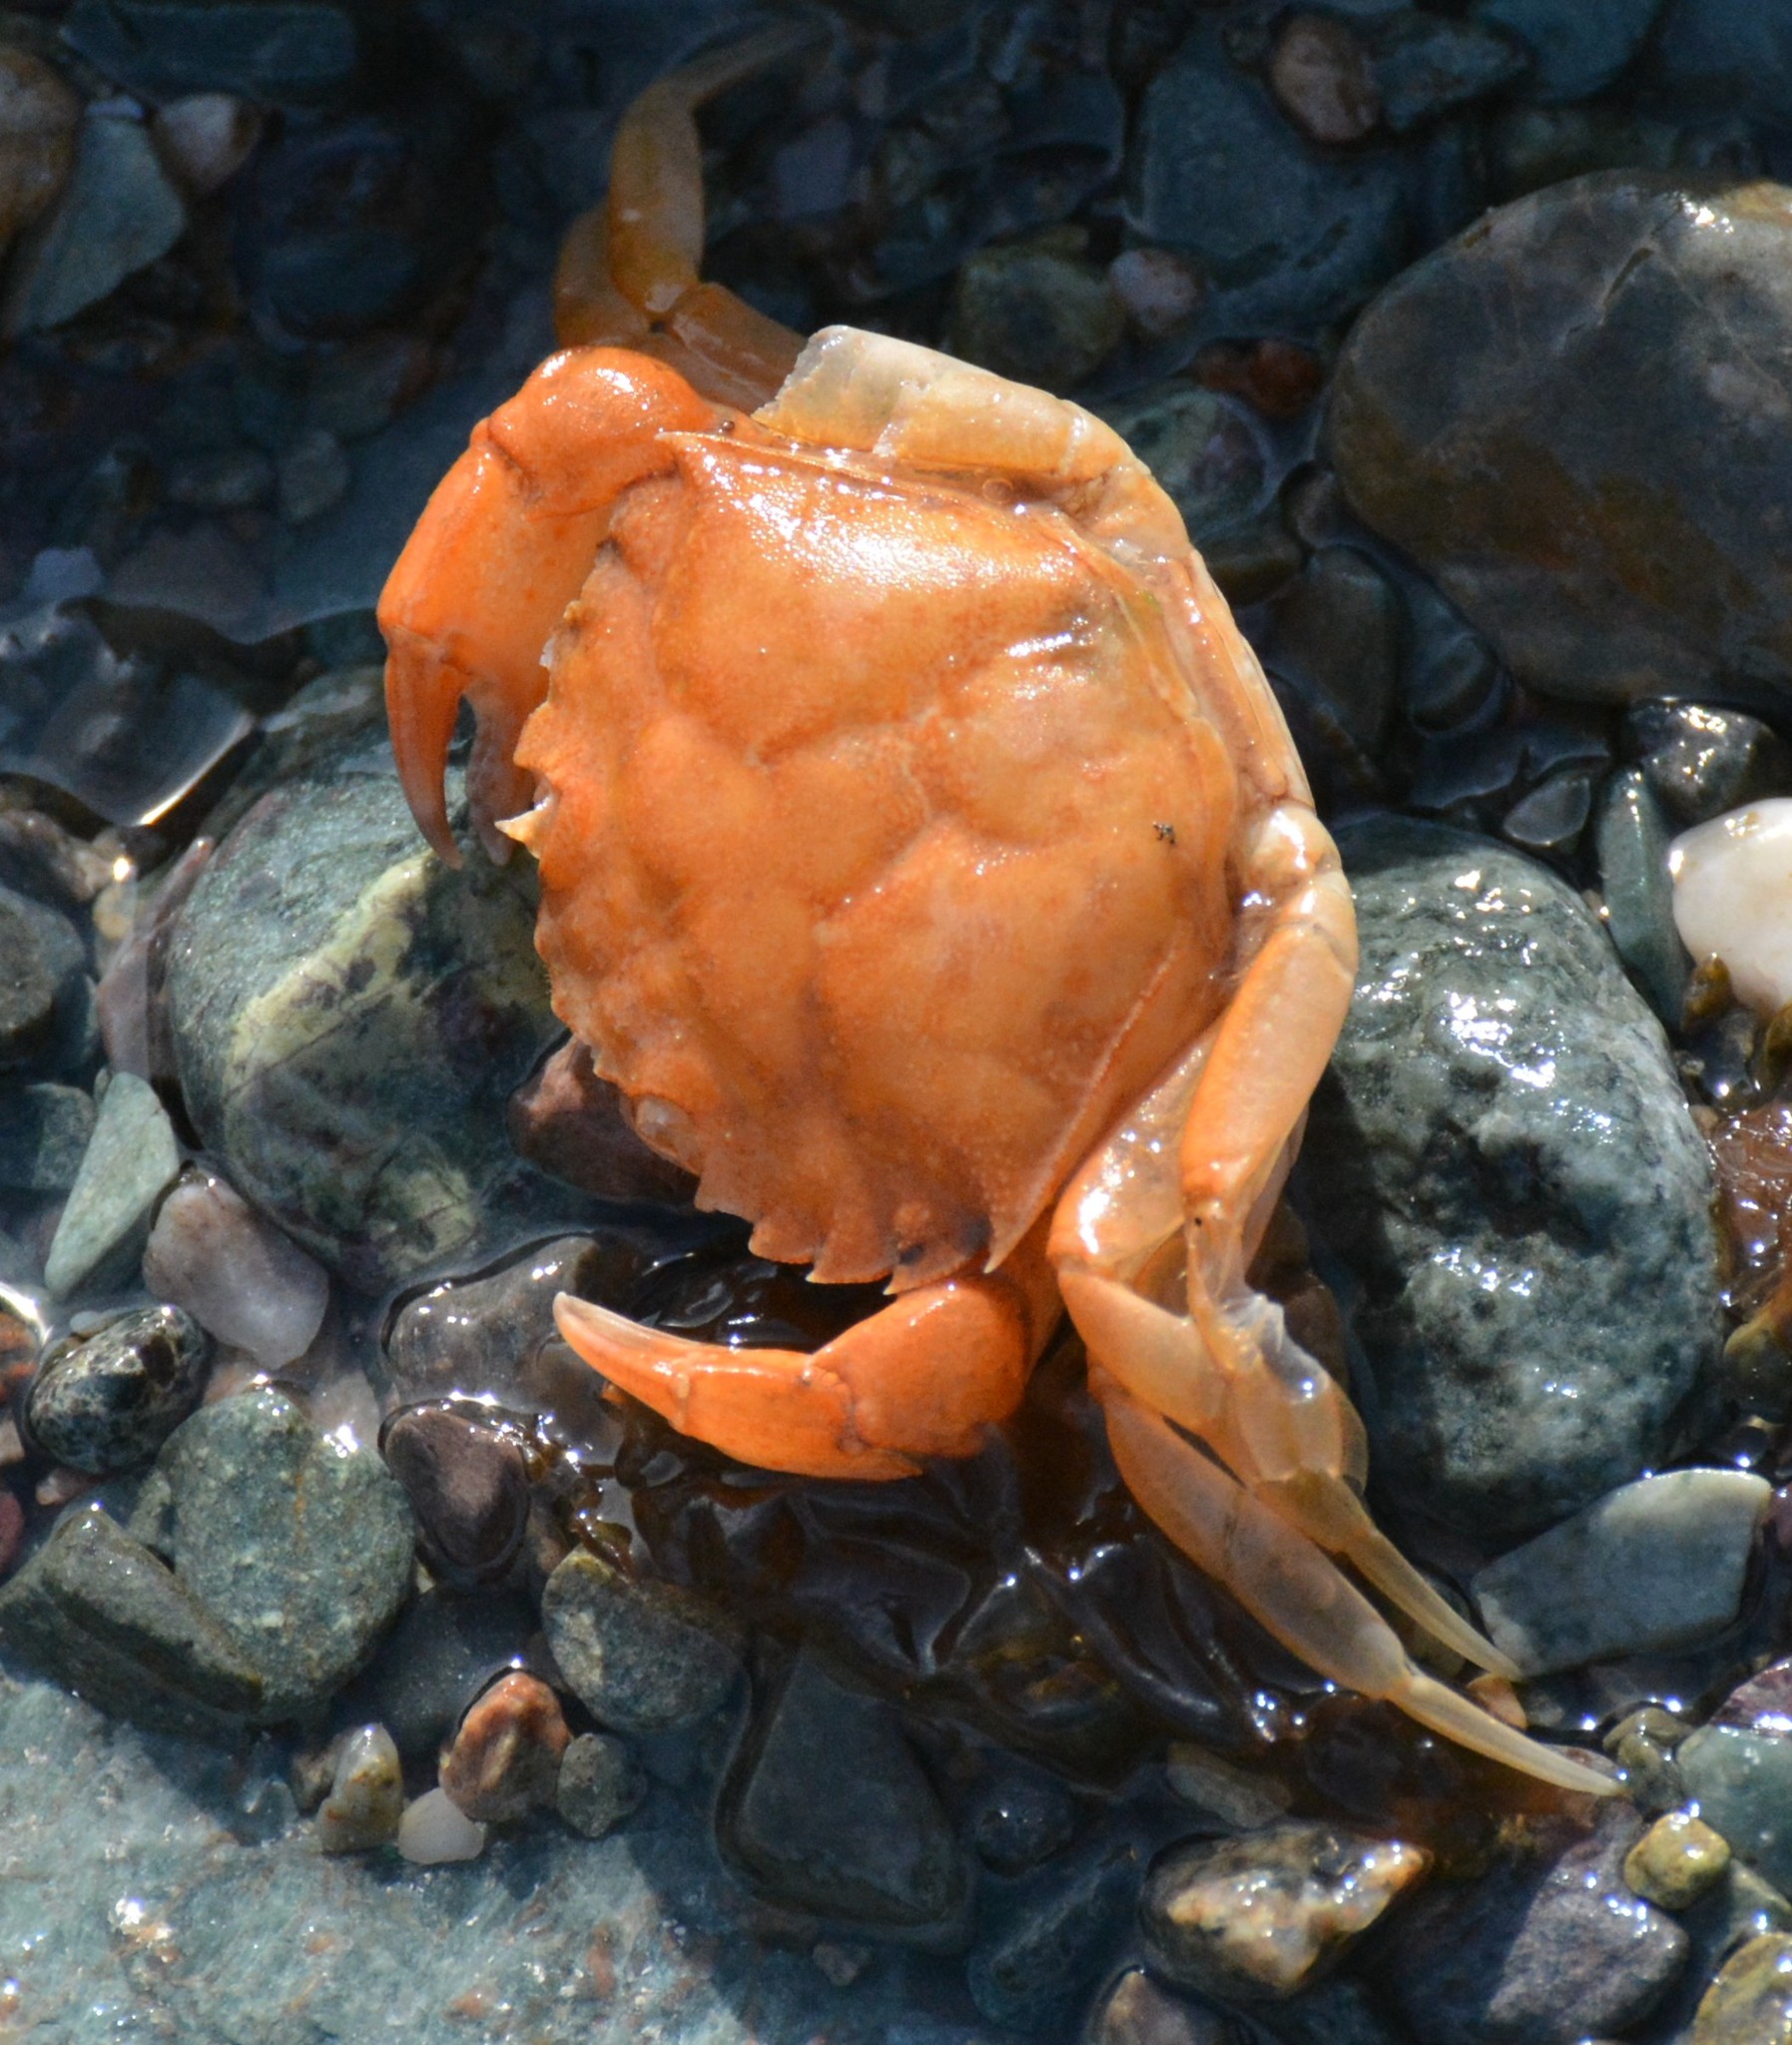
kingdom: Animalia
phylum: Arthropoda
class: Malacostraca
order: Decapoda
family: Carcinidae
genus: Carcinus
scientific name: Carcinus maenas
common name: European green crab
